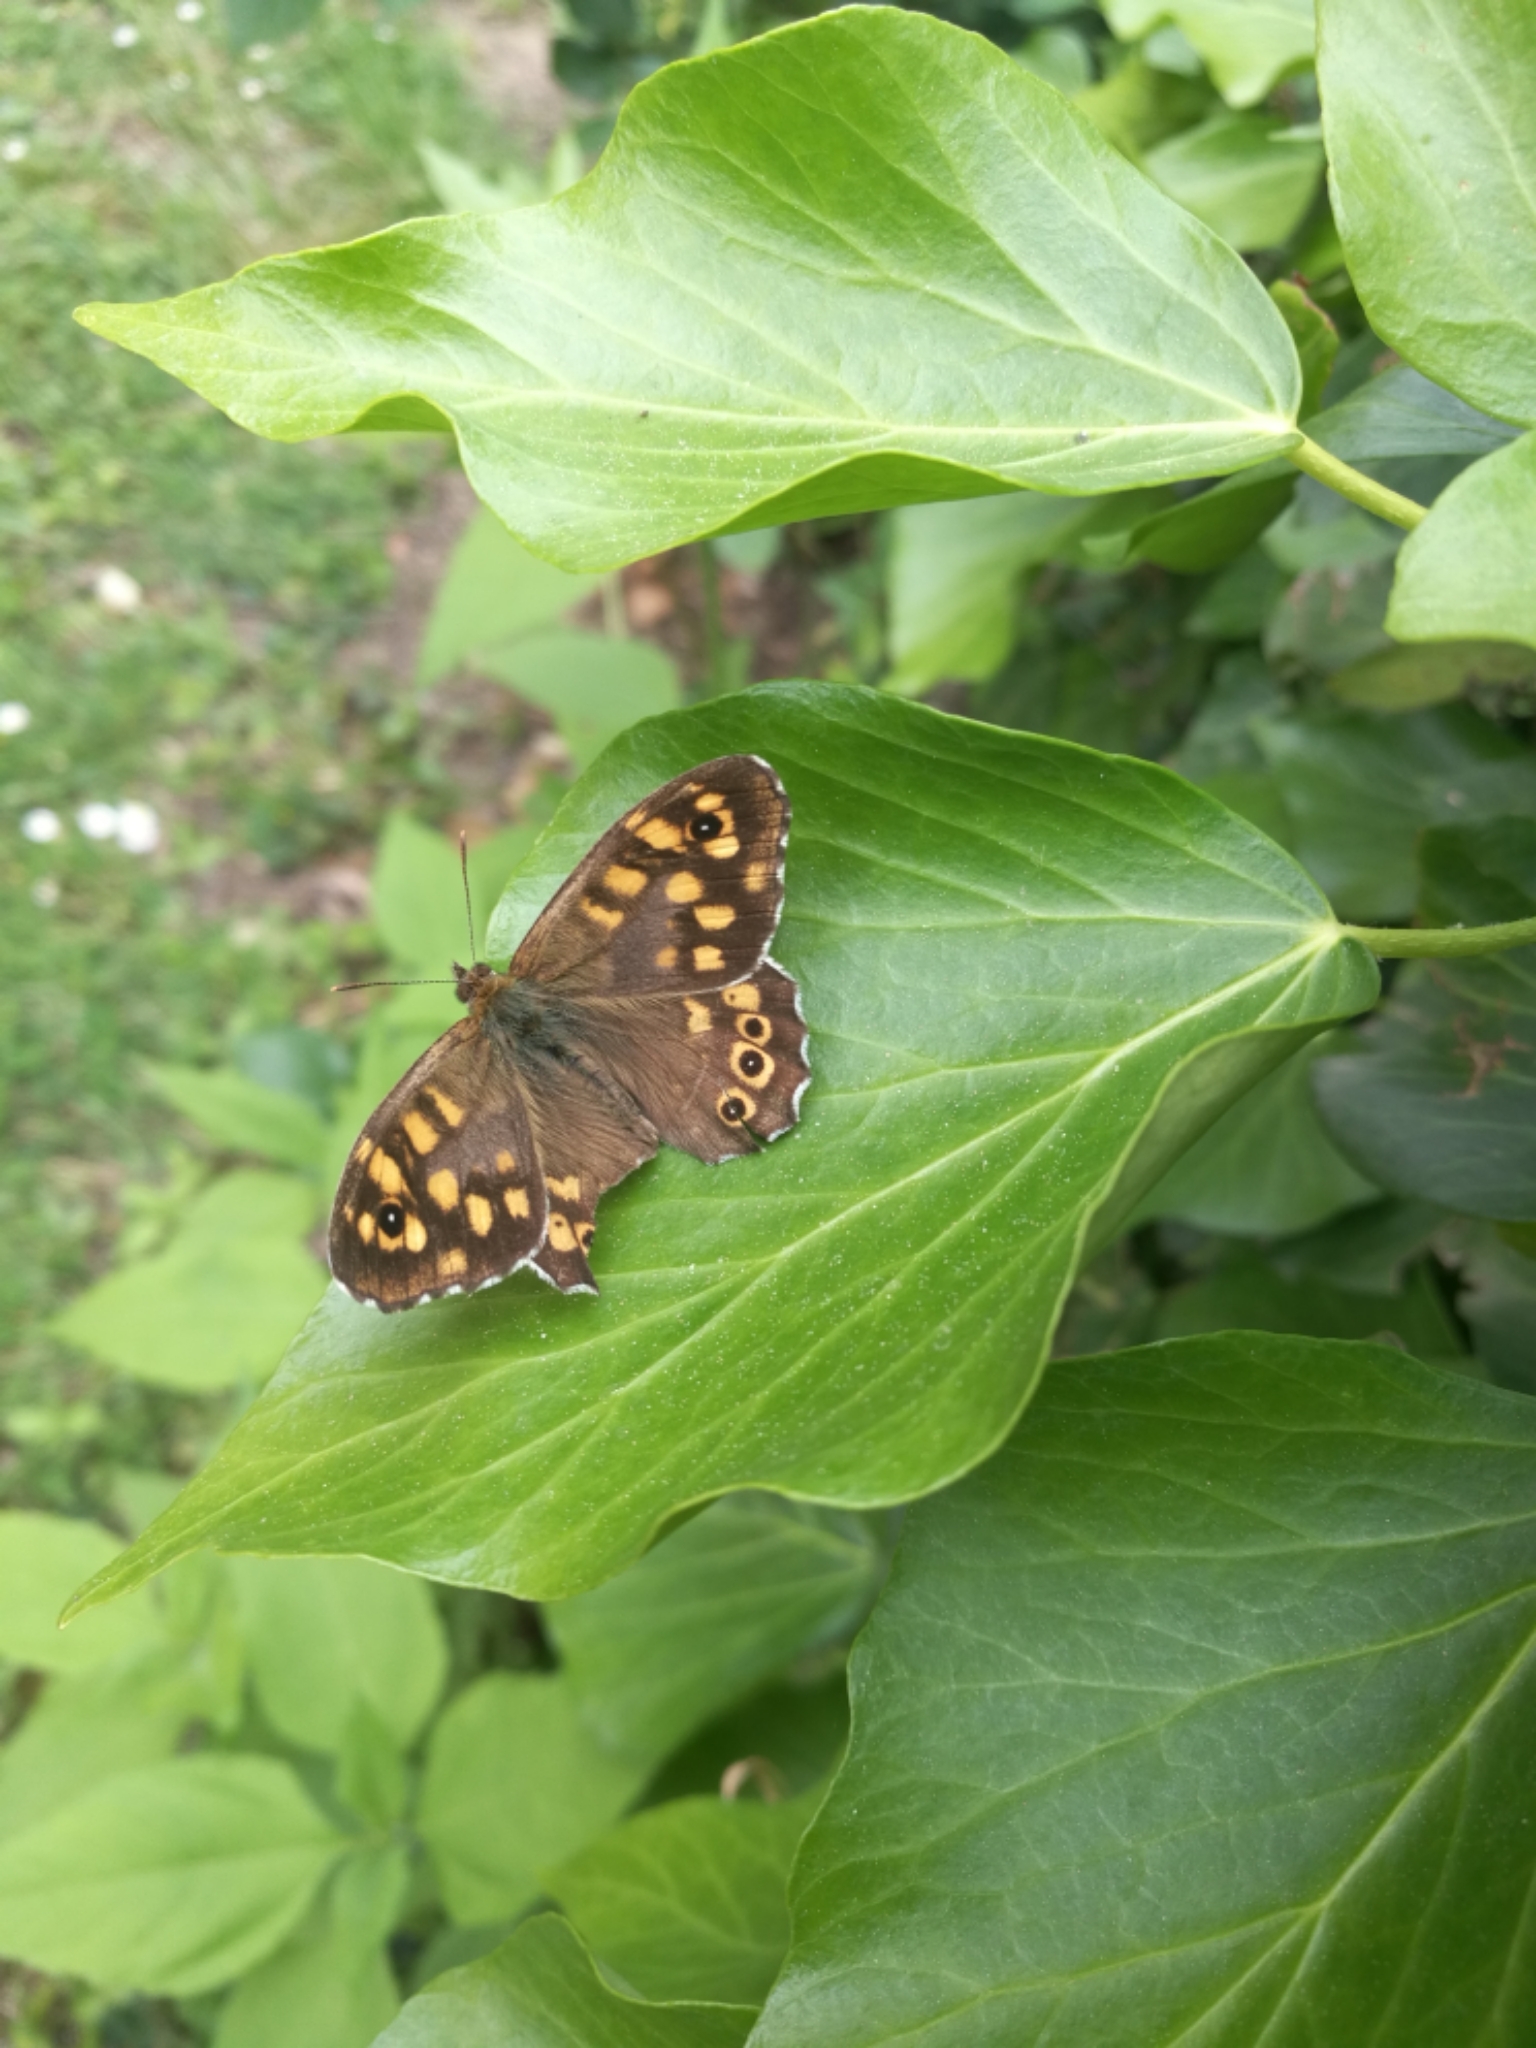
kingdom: Animalia
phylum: Arthropoda
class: Insecta
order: Lepidoptera
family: Nymphalidae
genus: Pararge
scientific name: Pararge aegeria
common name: Speckled wood
